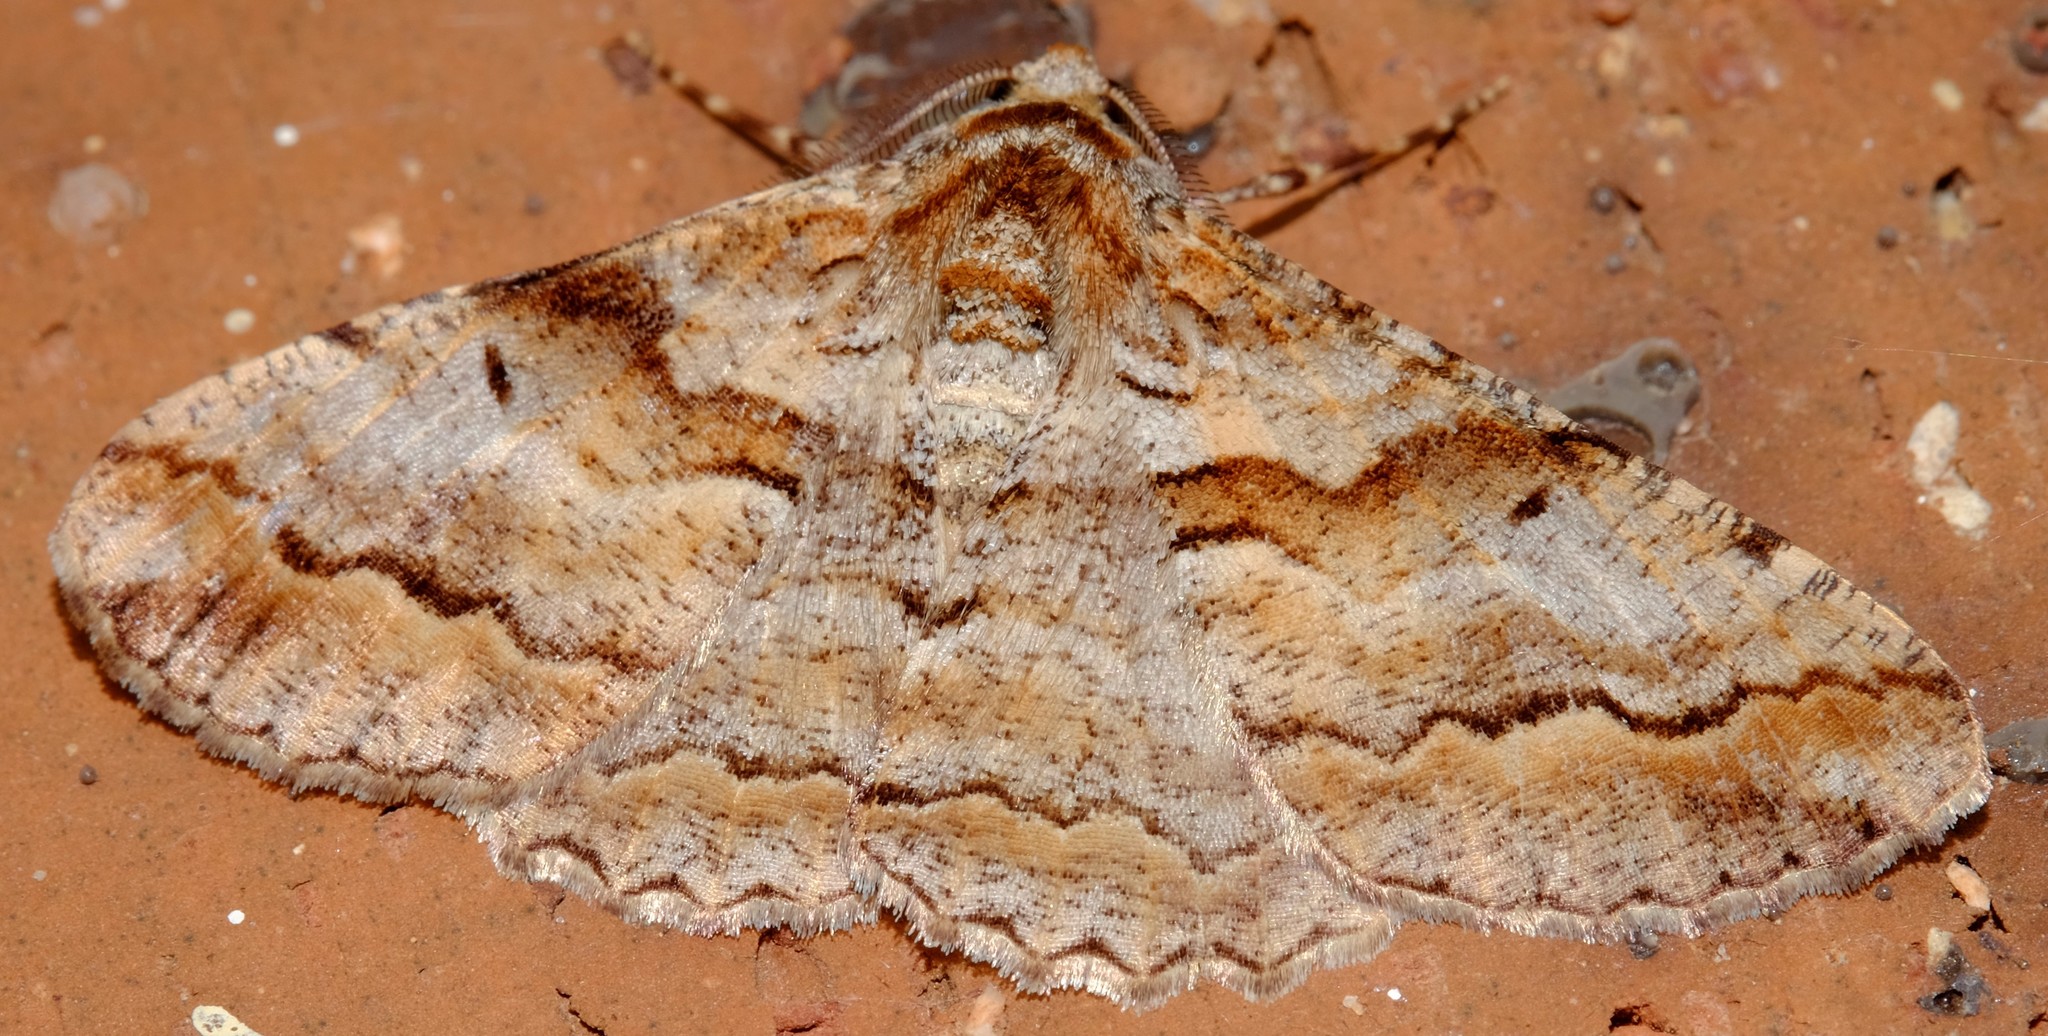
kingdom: Animalia
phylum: Arthropoda
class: Insecta
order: Lepidoptera
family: Geometridae
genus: Gastrinodes
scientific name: Gastrinodes bitaeniaria
